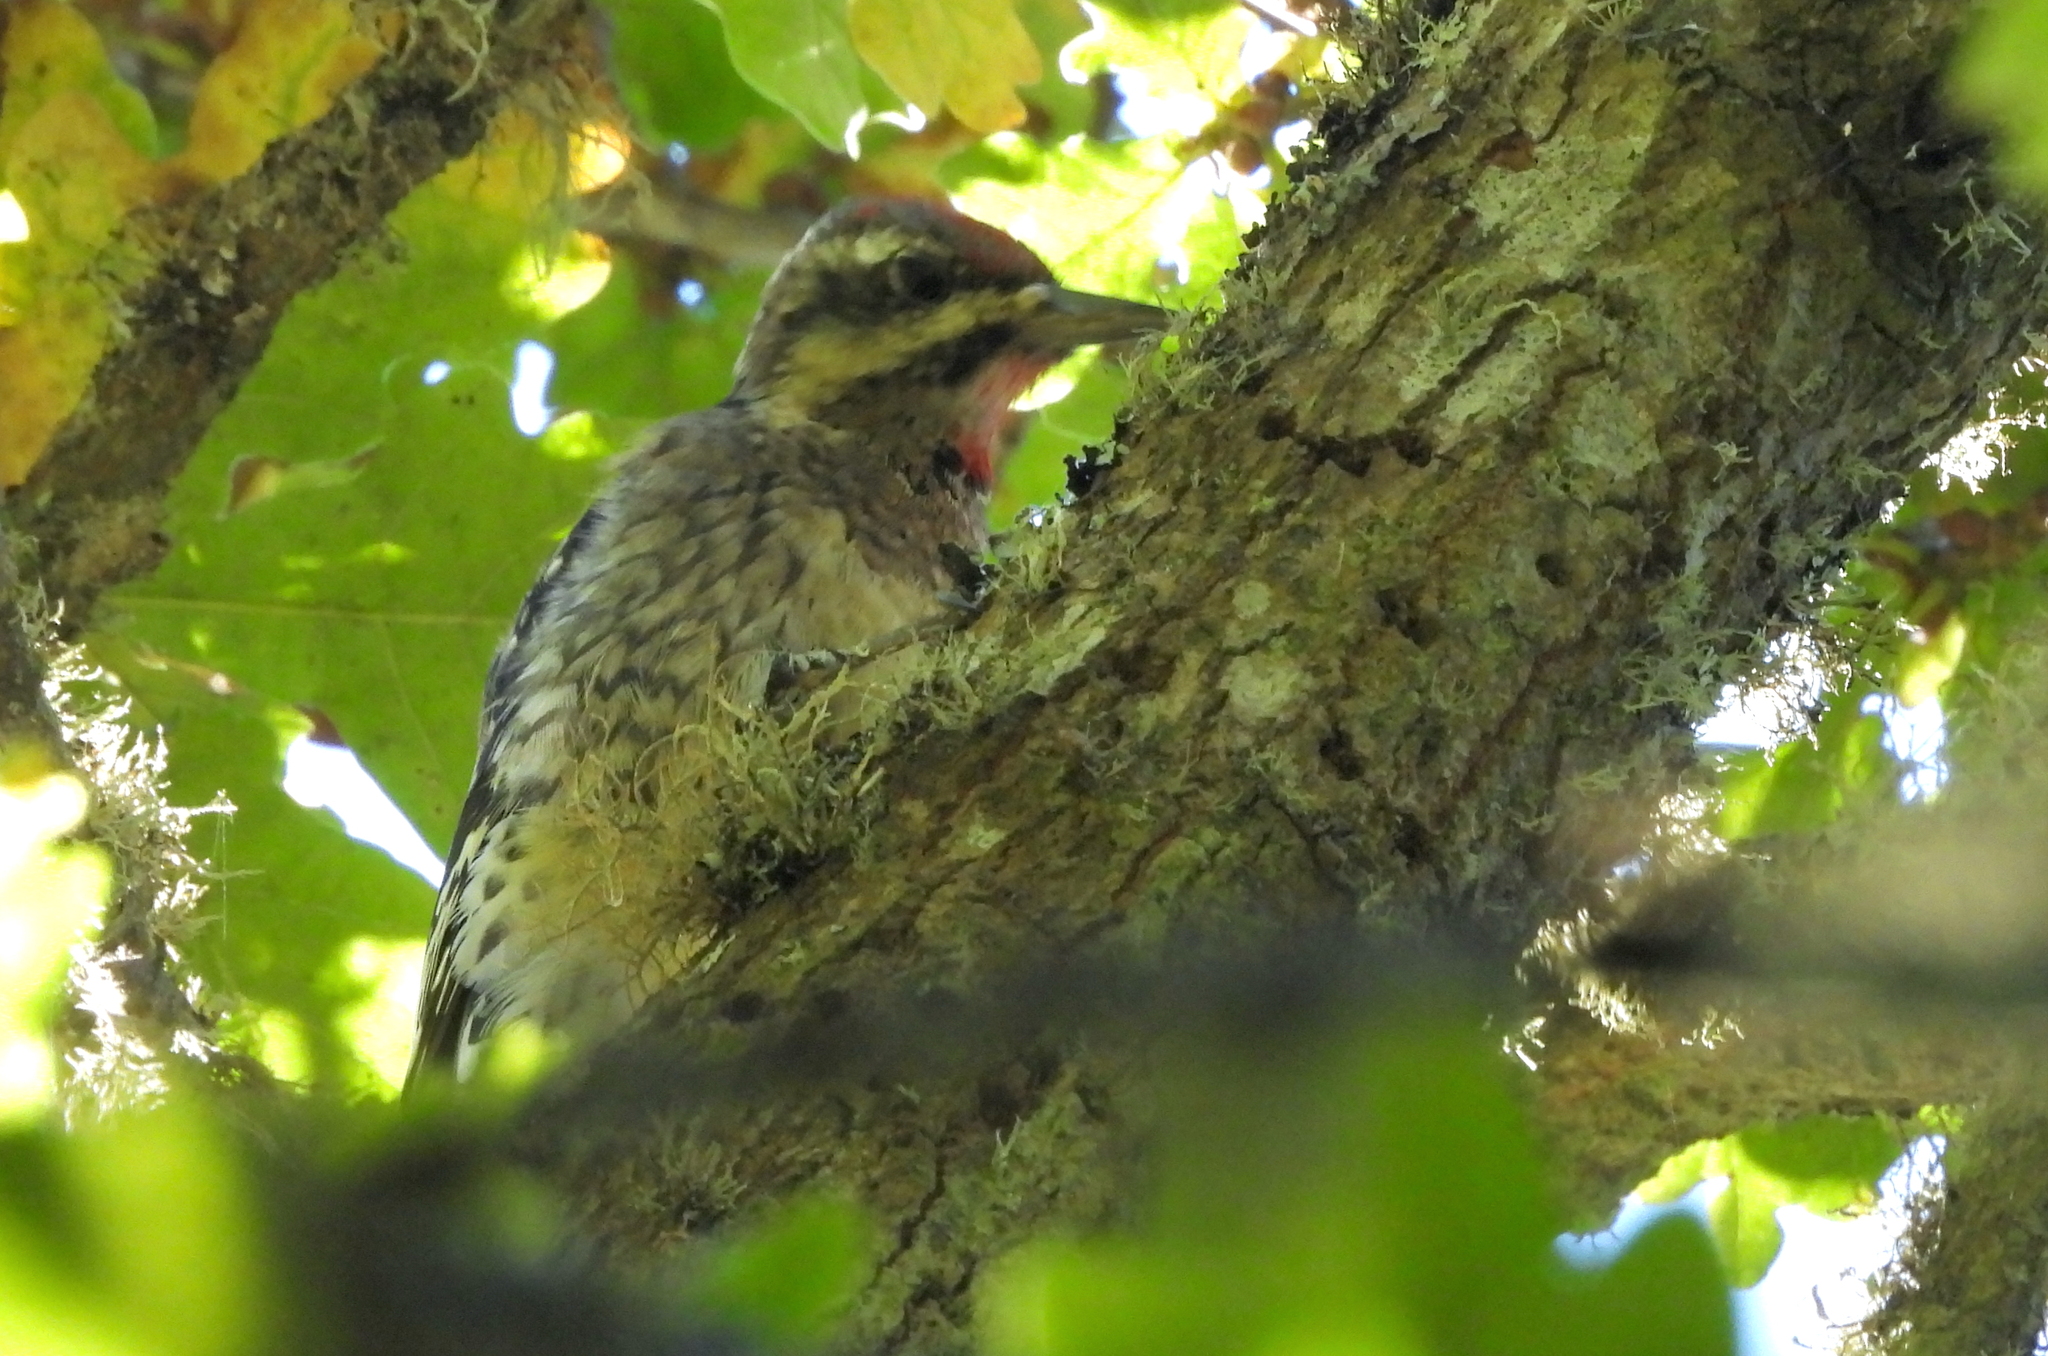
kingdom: Animalia
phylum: Chordata
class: Aves
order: Piciformes
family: Picidae
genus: Sphyrapicus
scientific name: Sphyrapicus varius
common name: Yellow-bellied sapsucker
